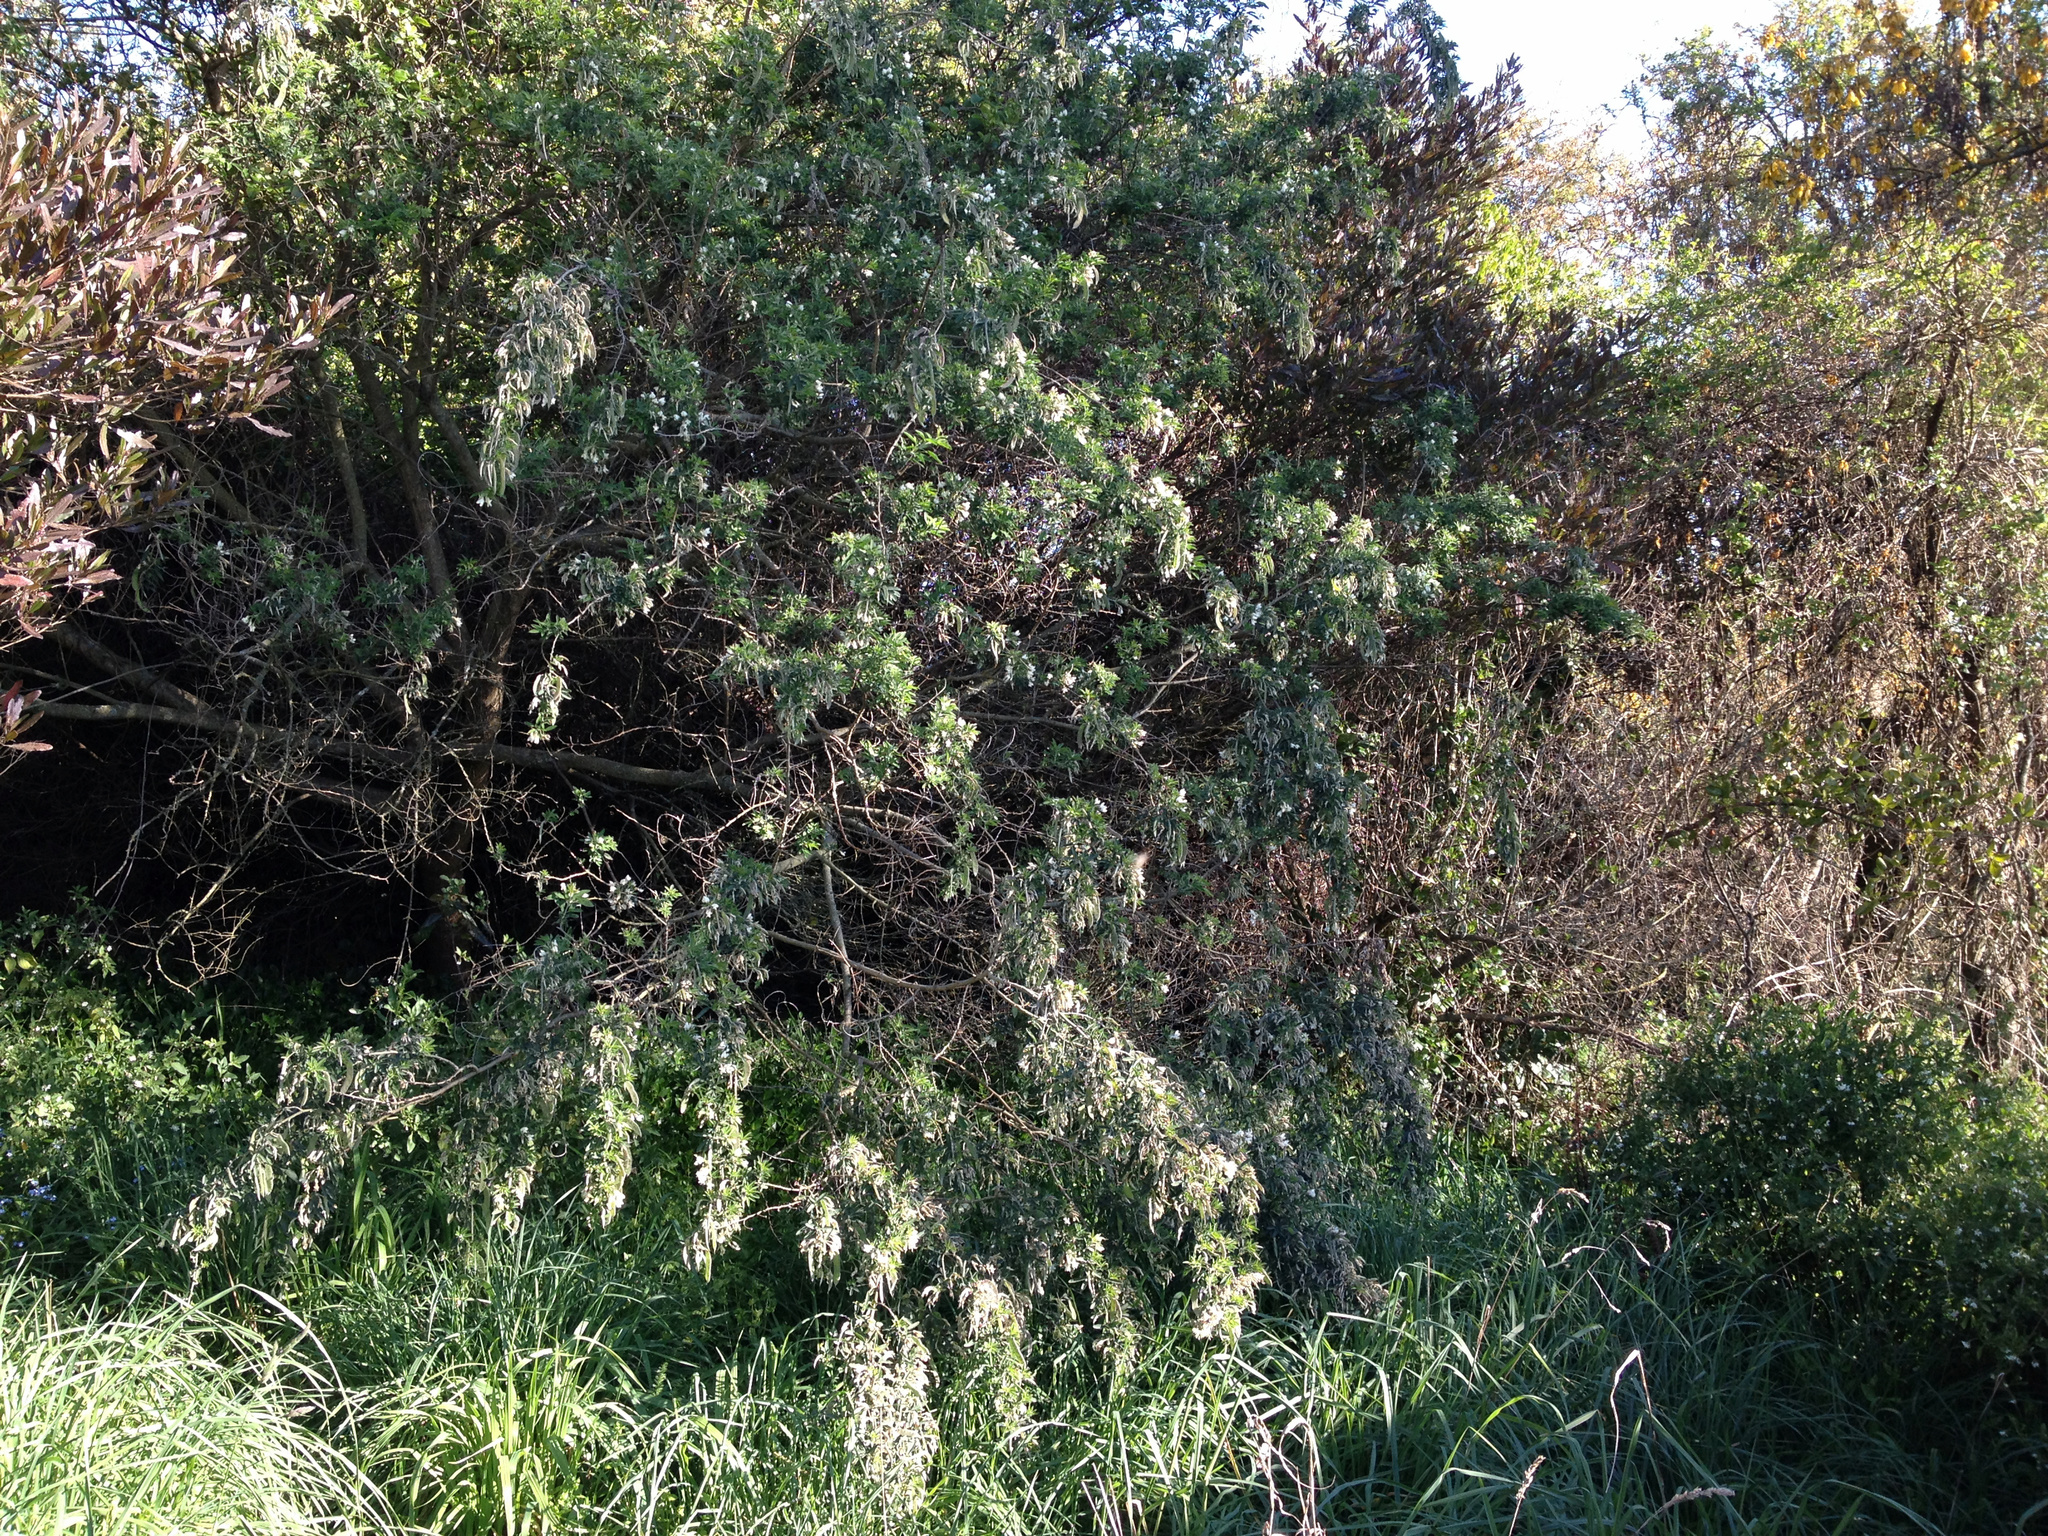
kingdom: Plantae
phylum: Tracheophyta
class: Magnoliopsida
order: Fabales
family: Fabaceae
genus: Chamaecytisus
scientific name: Chamaecytisus prolifer
